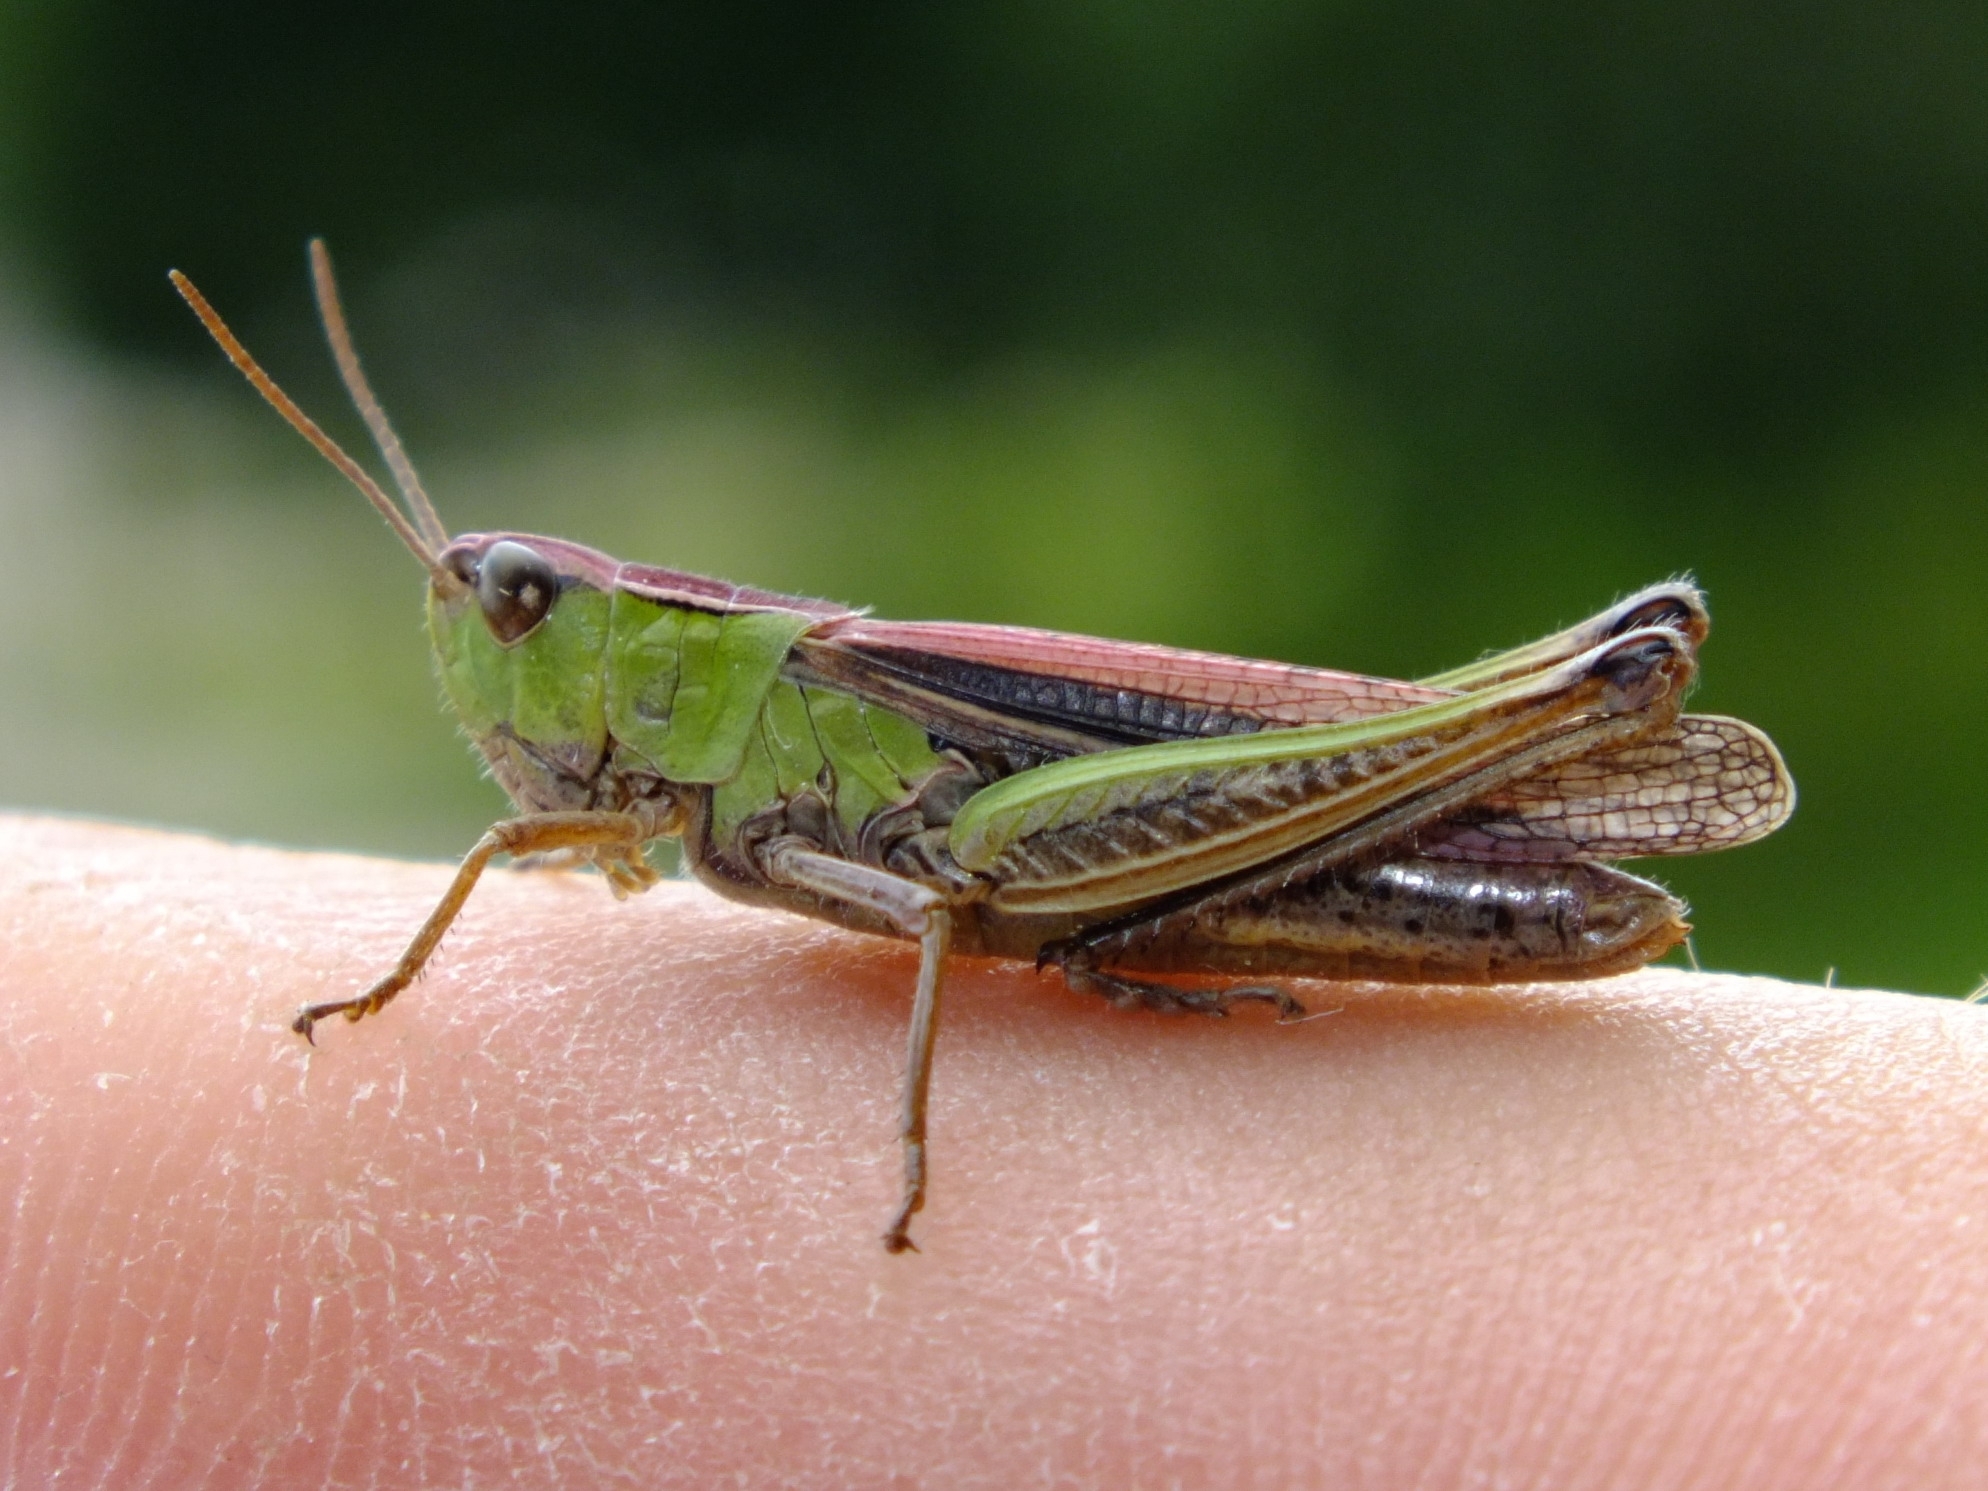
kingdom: Animalia
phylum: Arthropoda
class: Insecta
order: Orthoptera
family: Acrididae
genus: Chorthippus
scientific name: Chorthippus albomarginatus
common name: Lesser marsh grasshopper
